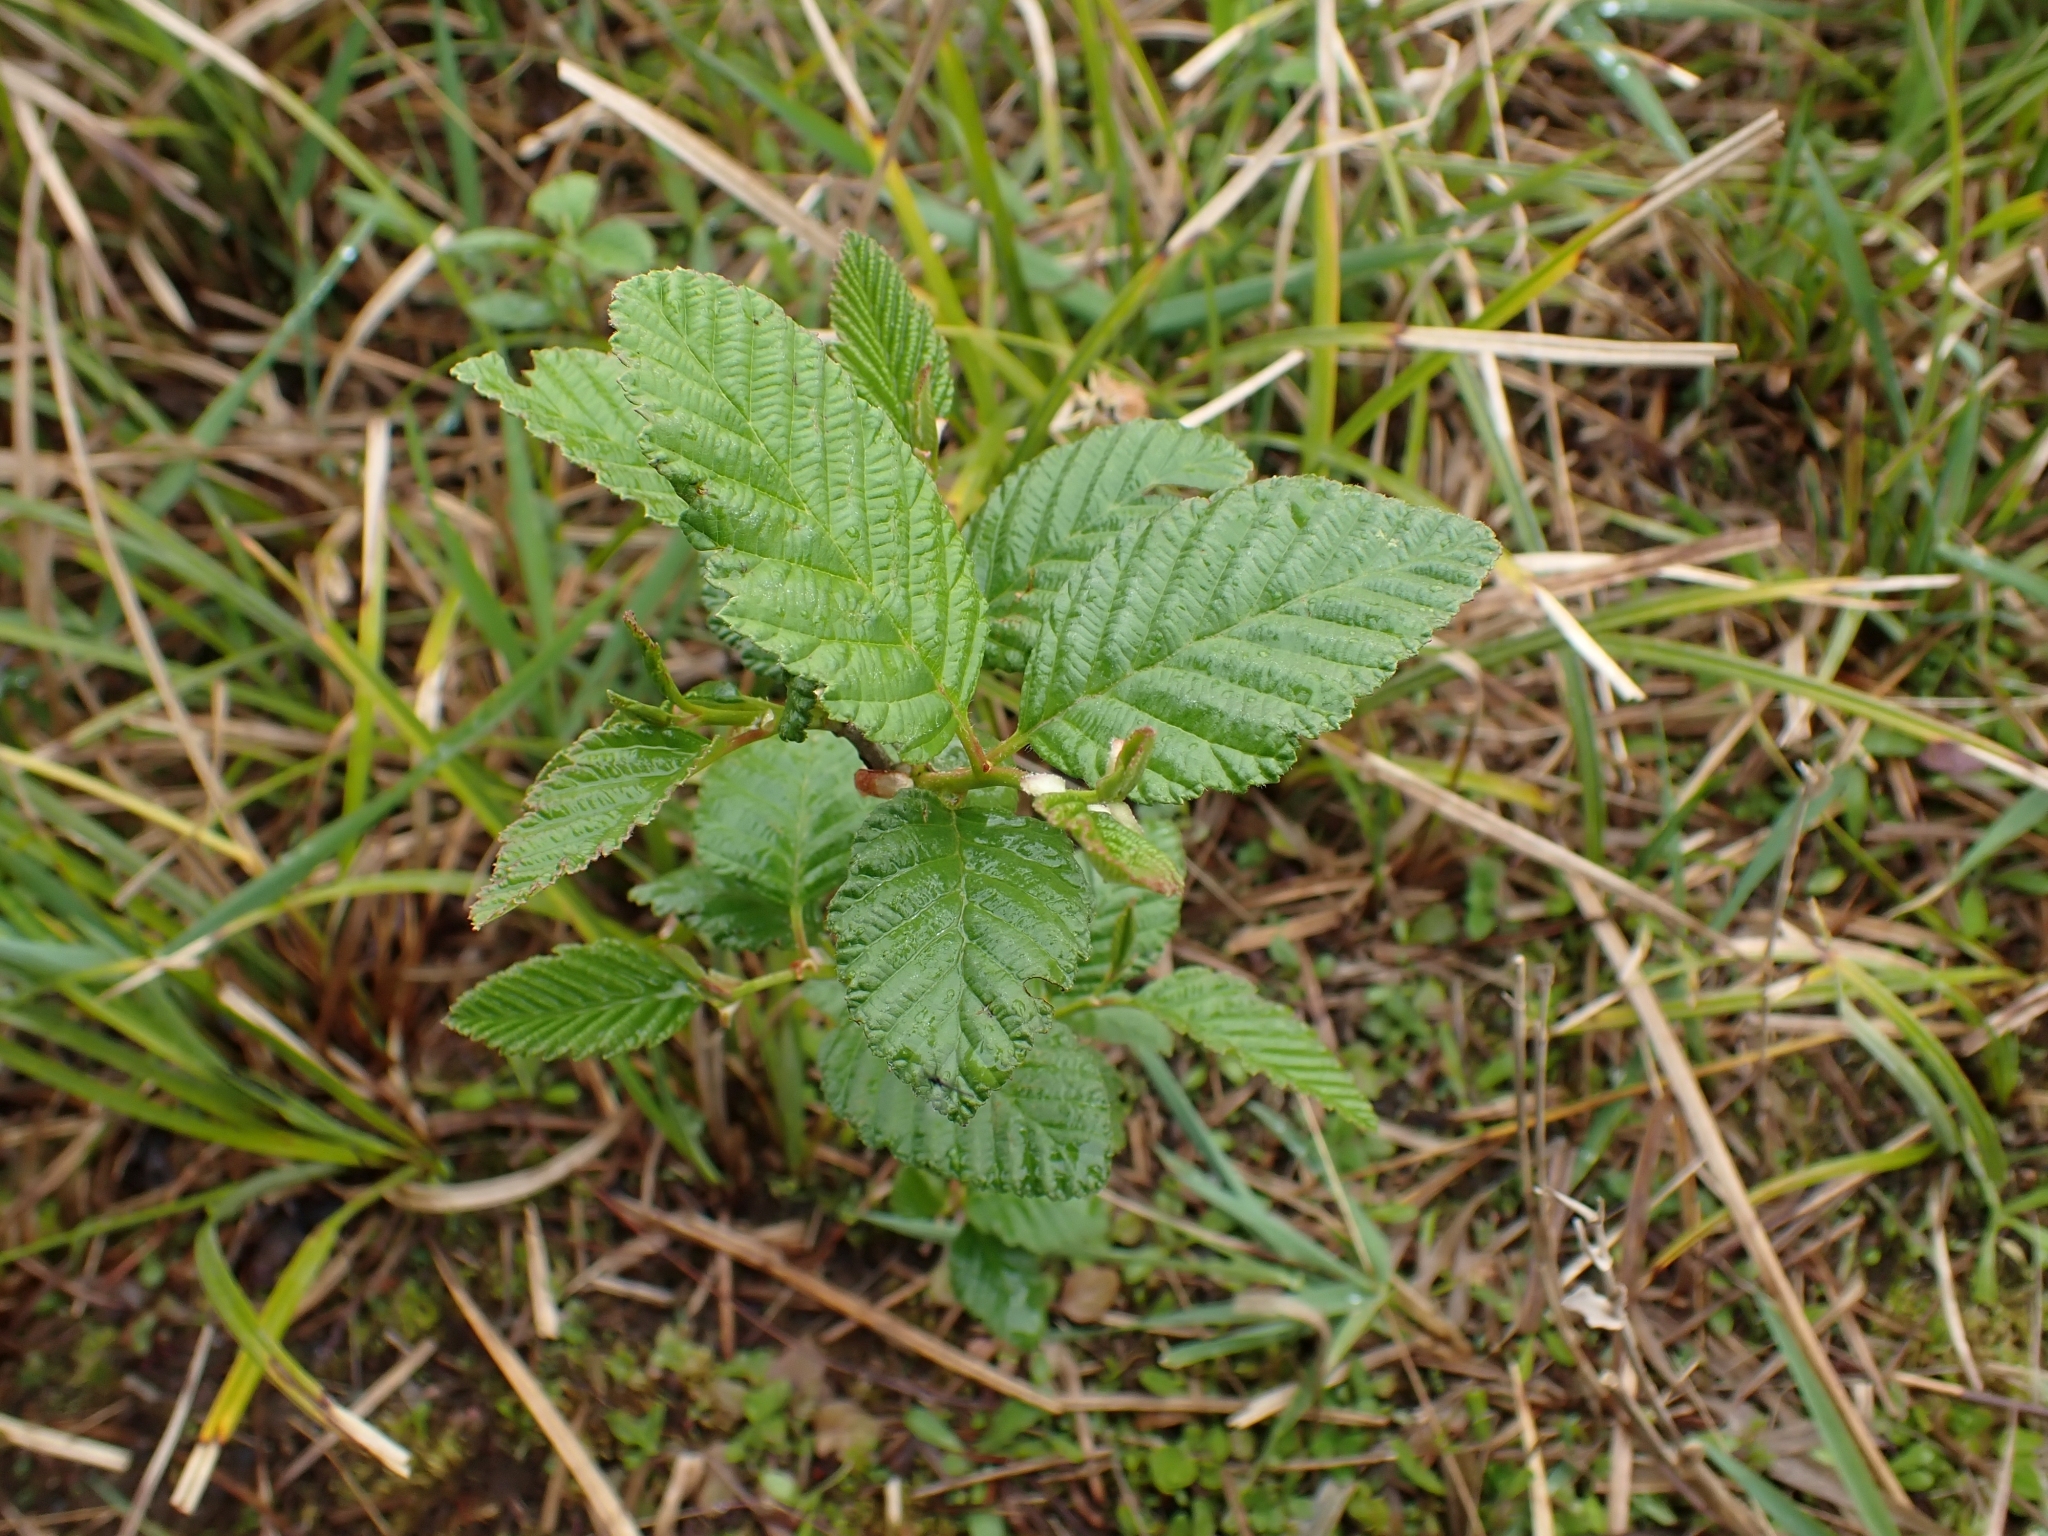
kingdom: Plantae
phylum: Tracheophyta
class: Magnoliopsida
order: Fagales
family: Betulaceae
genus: Alnus
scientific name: Alnus rubra
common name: Red alder
